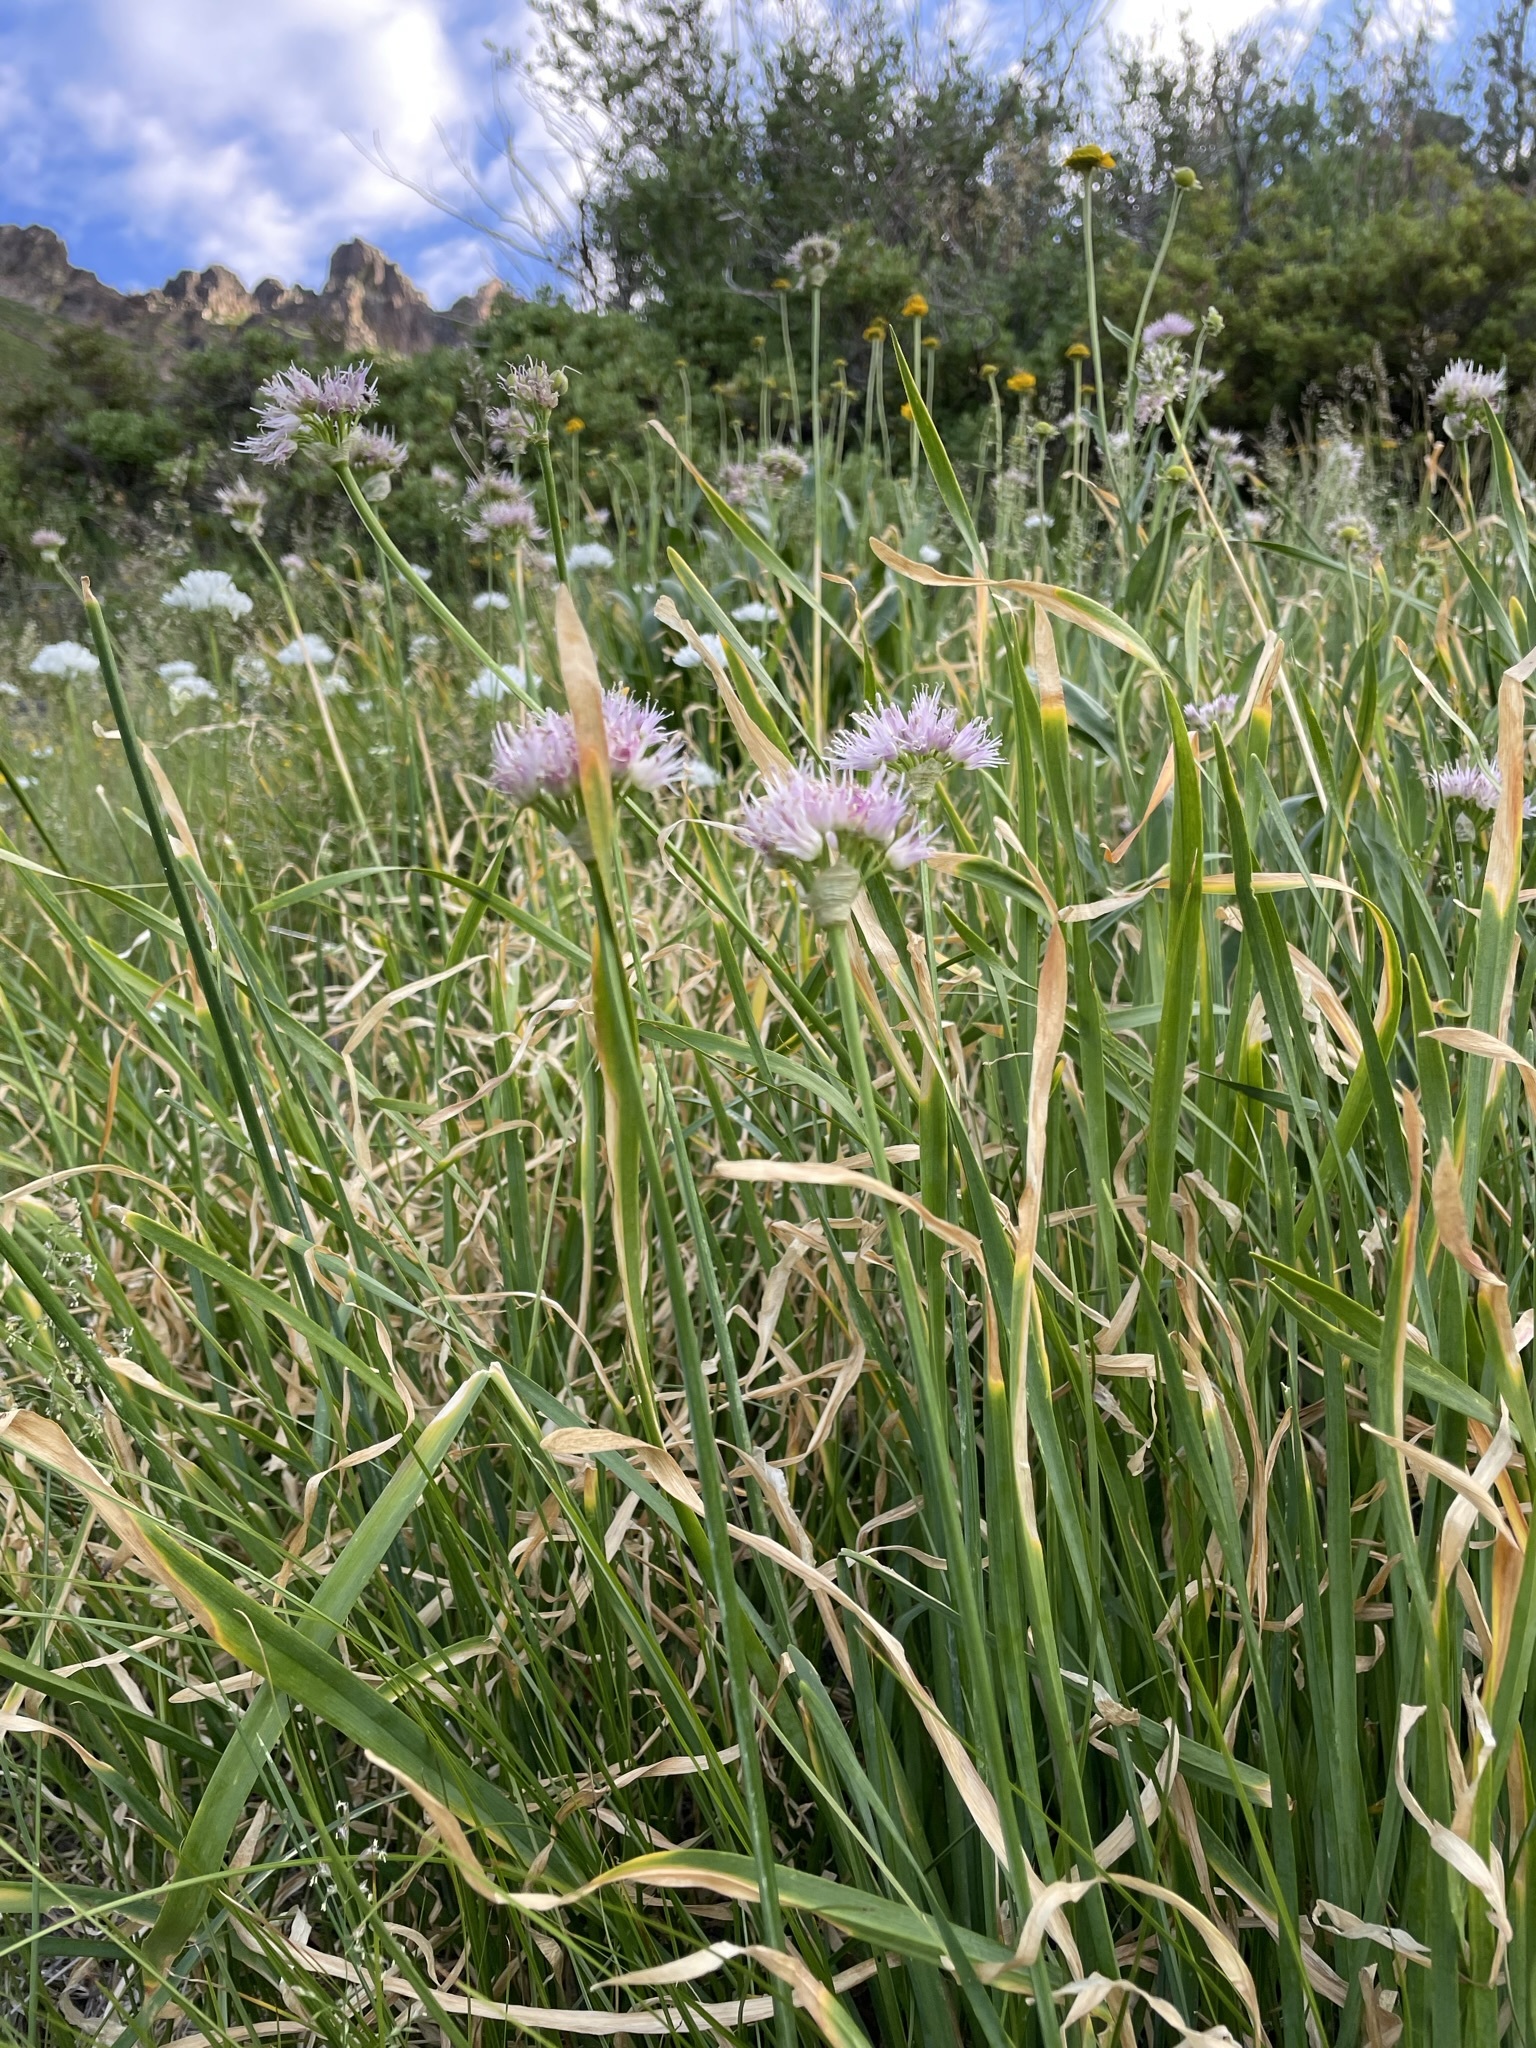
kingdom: Plantae
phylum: Tracheophyta
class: Liliopsida
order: Asparagales
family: Amaryllidaceae
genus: Allium
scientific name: Allium validum
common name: Pacific mountain onion
